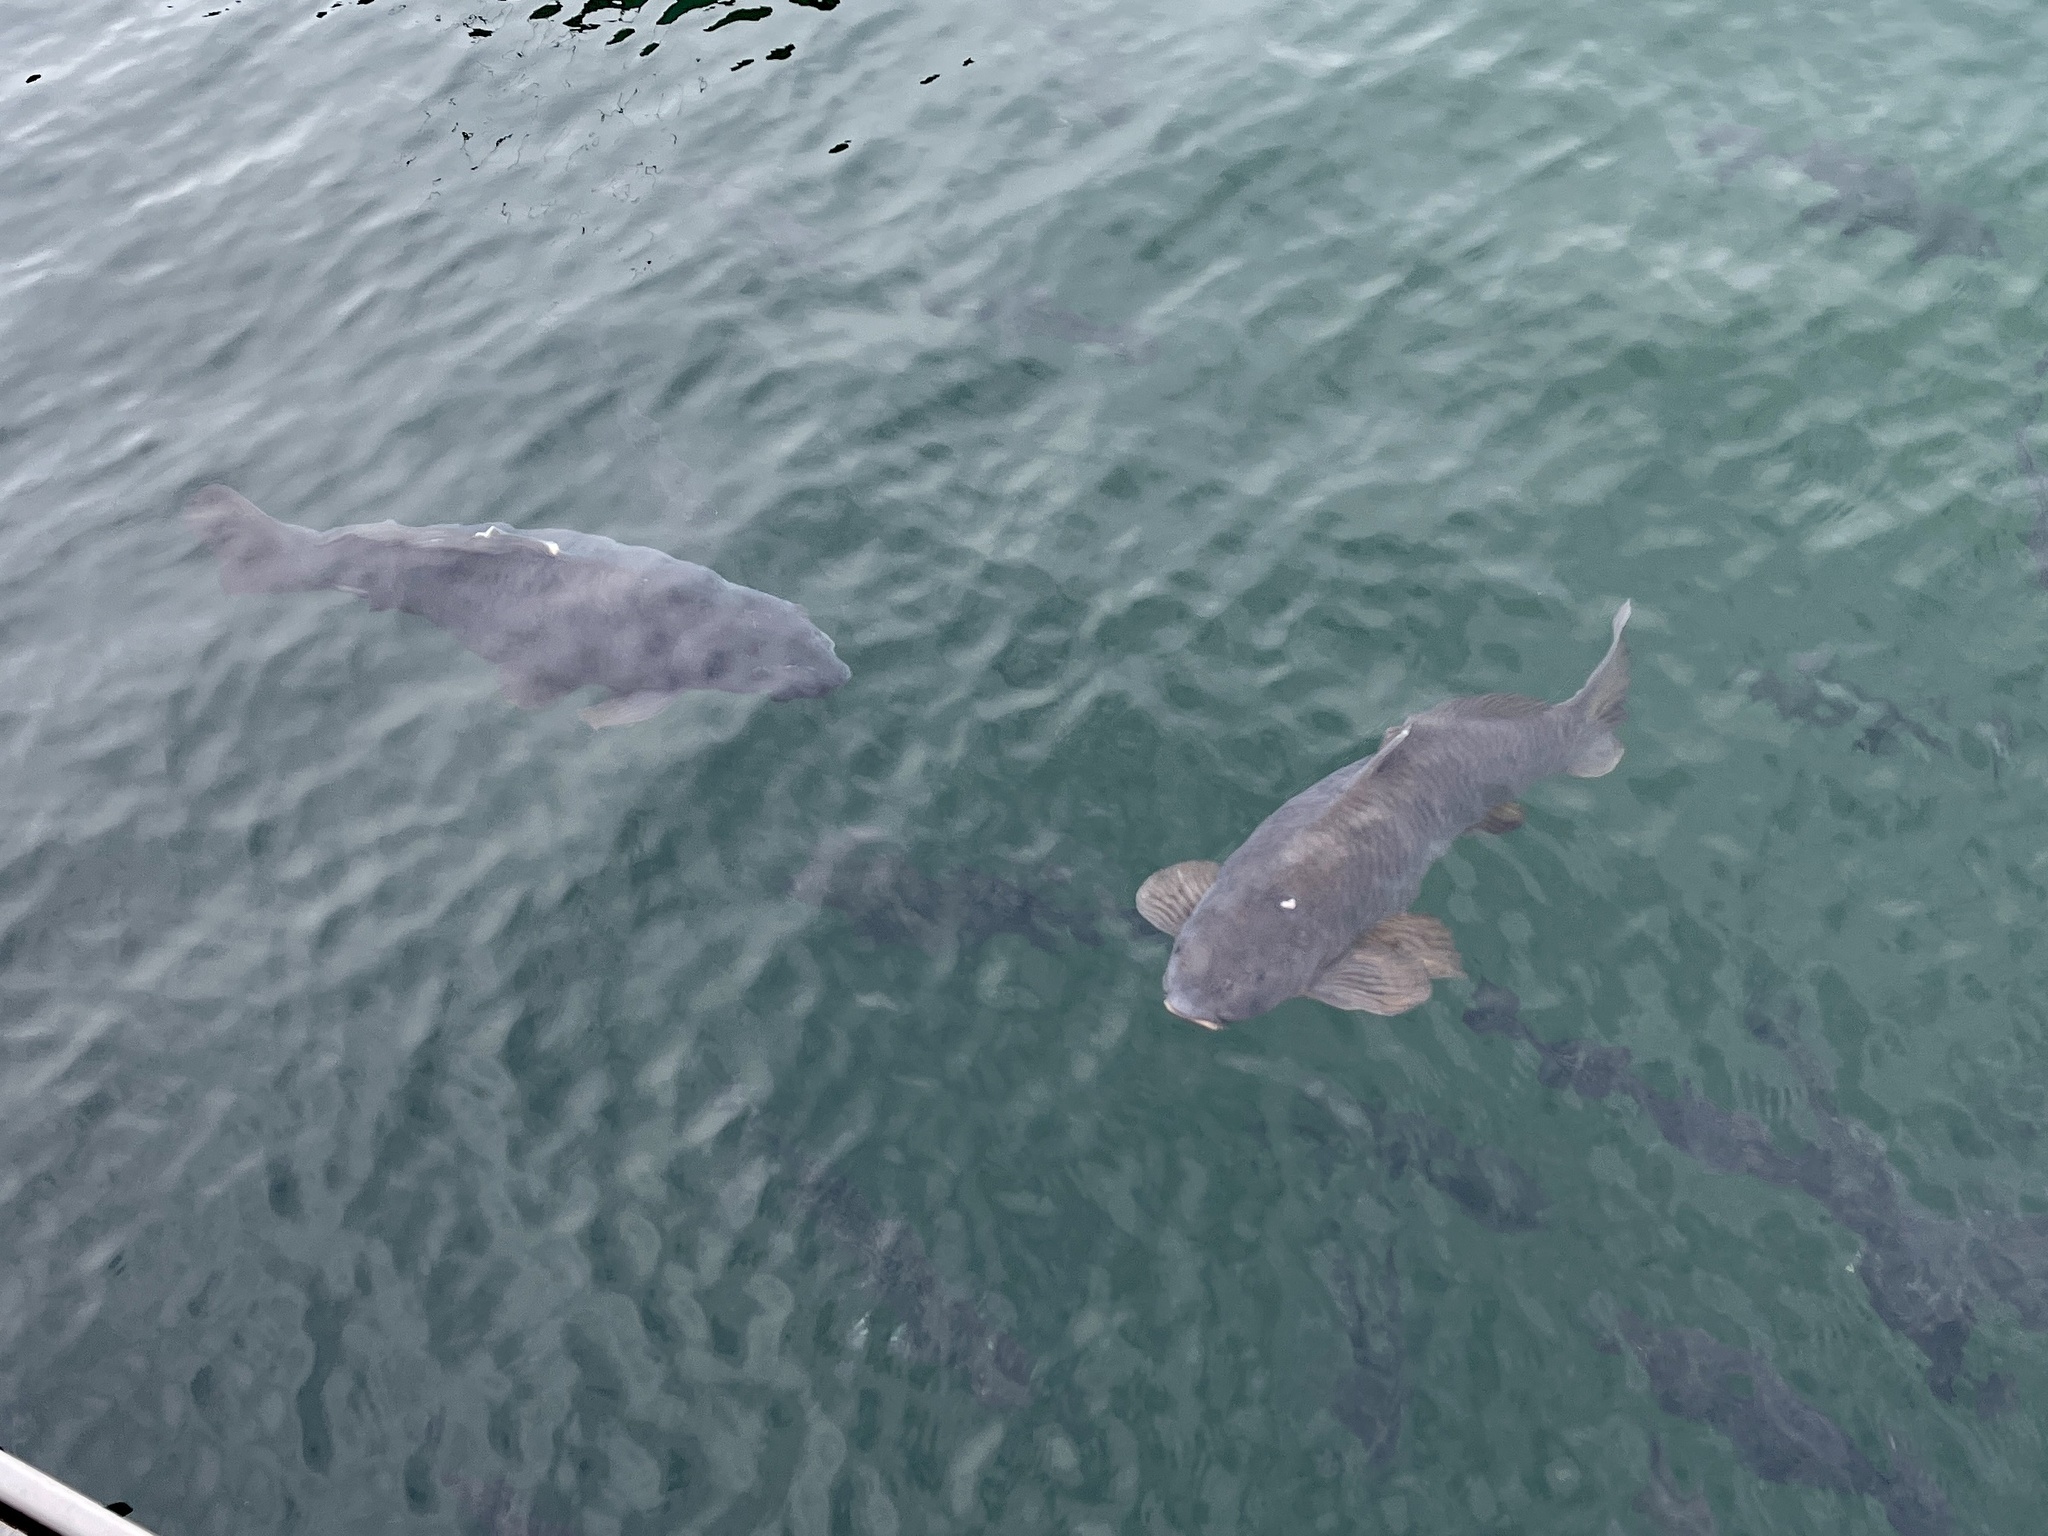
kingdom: Animalia
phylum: Chordata
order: Cypriniformes
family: Cyprinidae
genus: Cyprinus
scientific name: Cyprinus carpio
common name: Common carp
